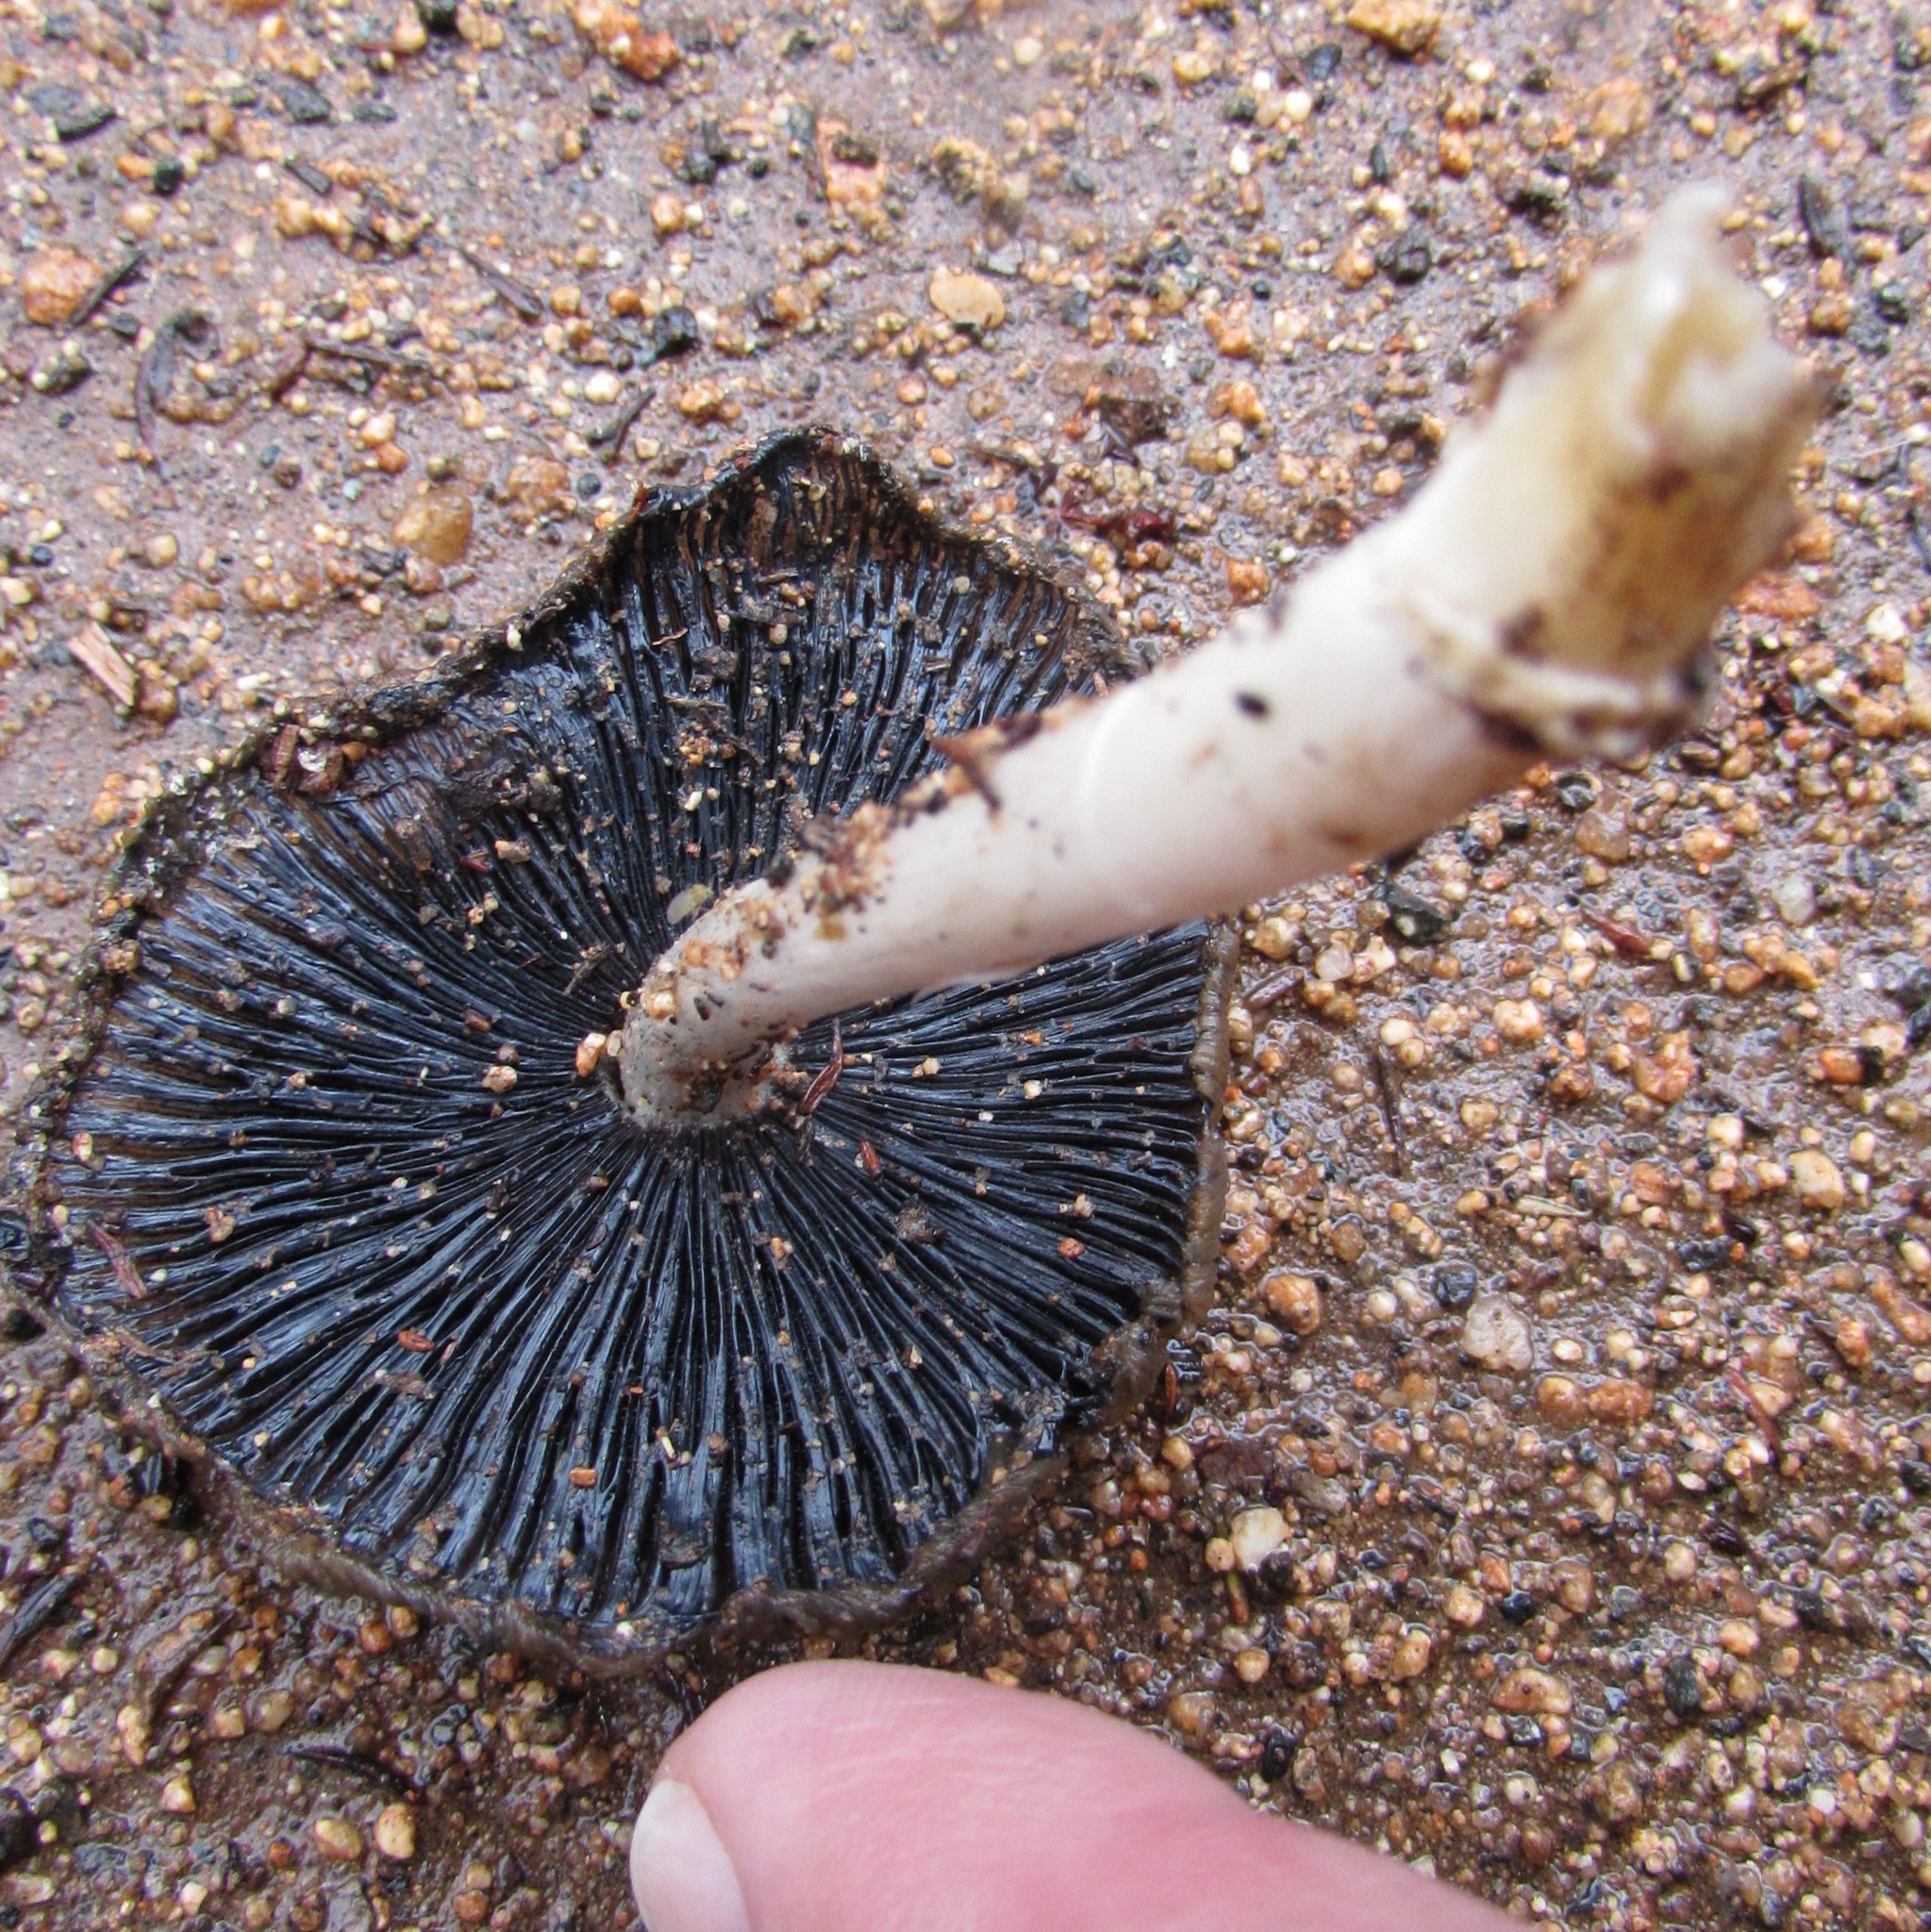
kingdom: Fungi
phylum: Basidiomycota
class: Agaricomycetes
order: Agaricales
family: Psathyrellaceae
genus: Coprinellus
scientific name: Coprinellus micaceus
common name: Glistening ink-cap
